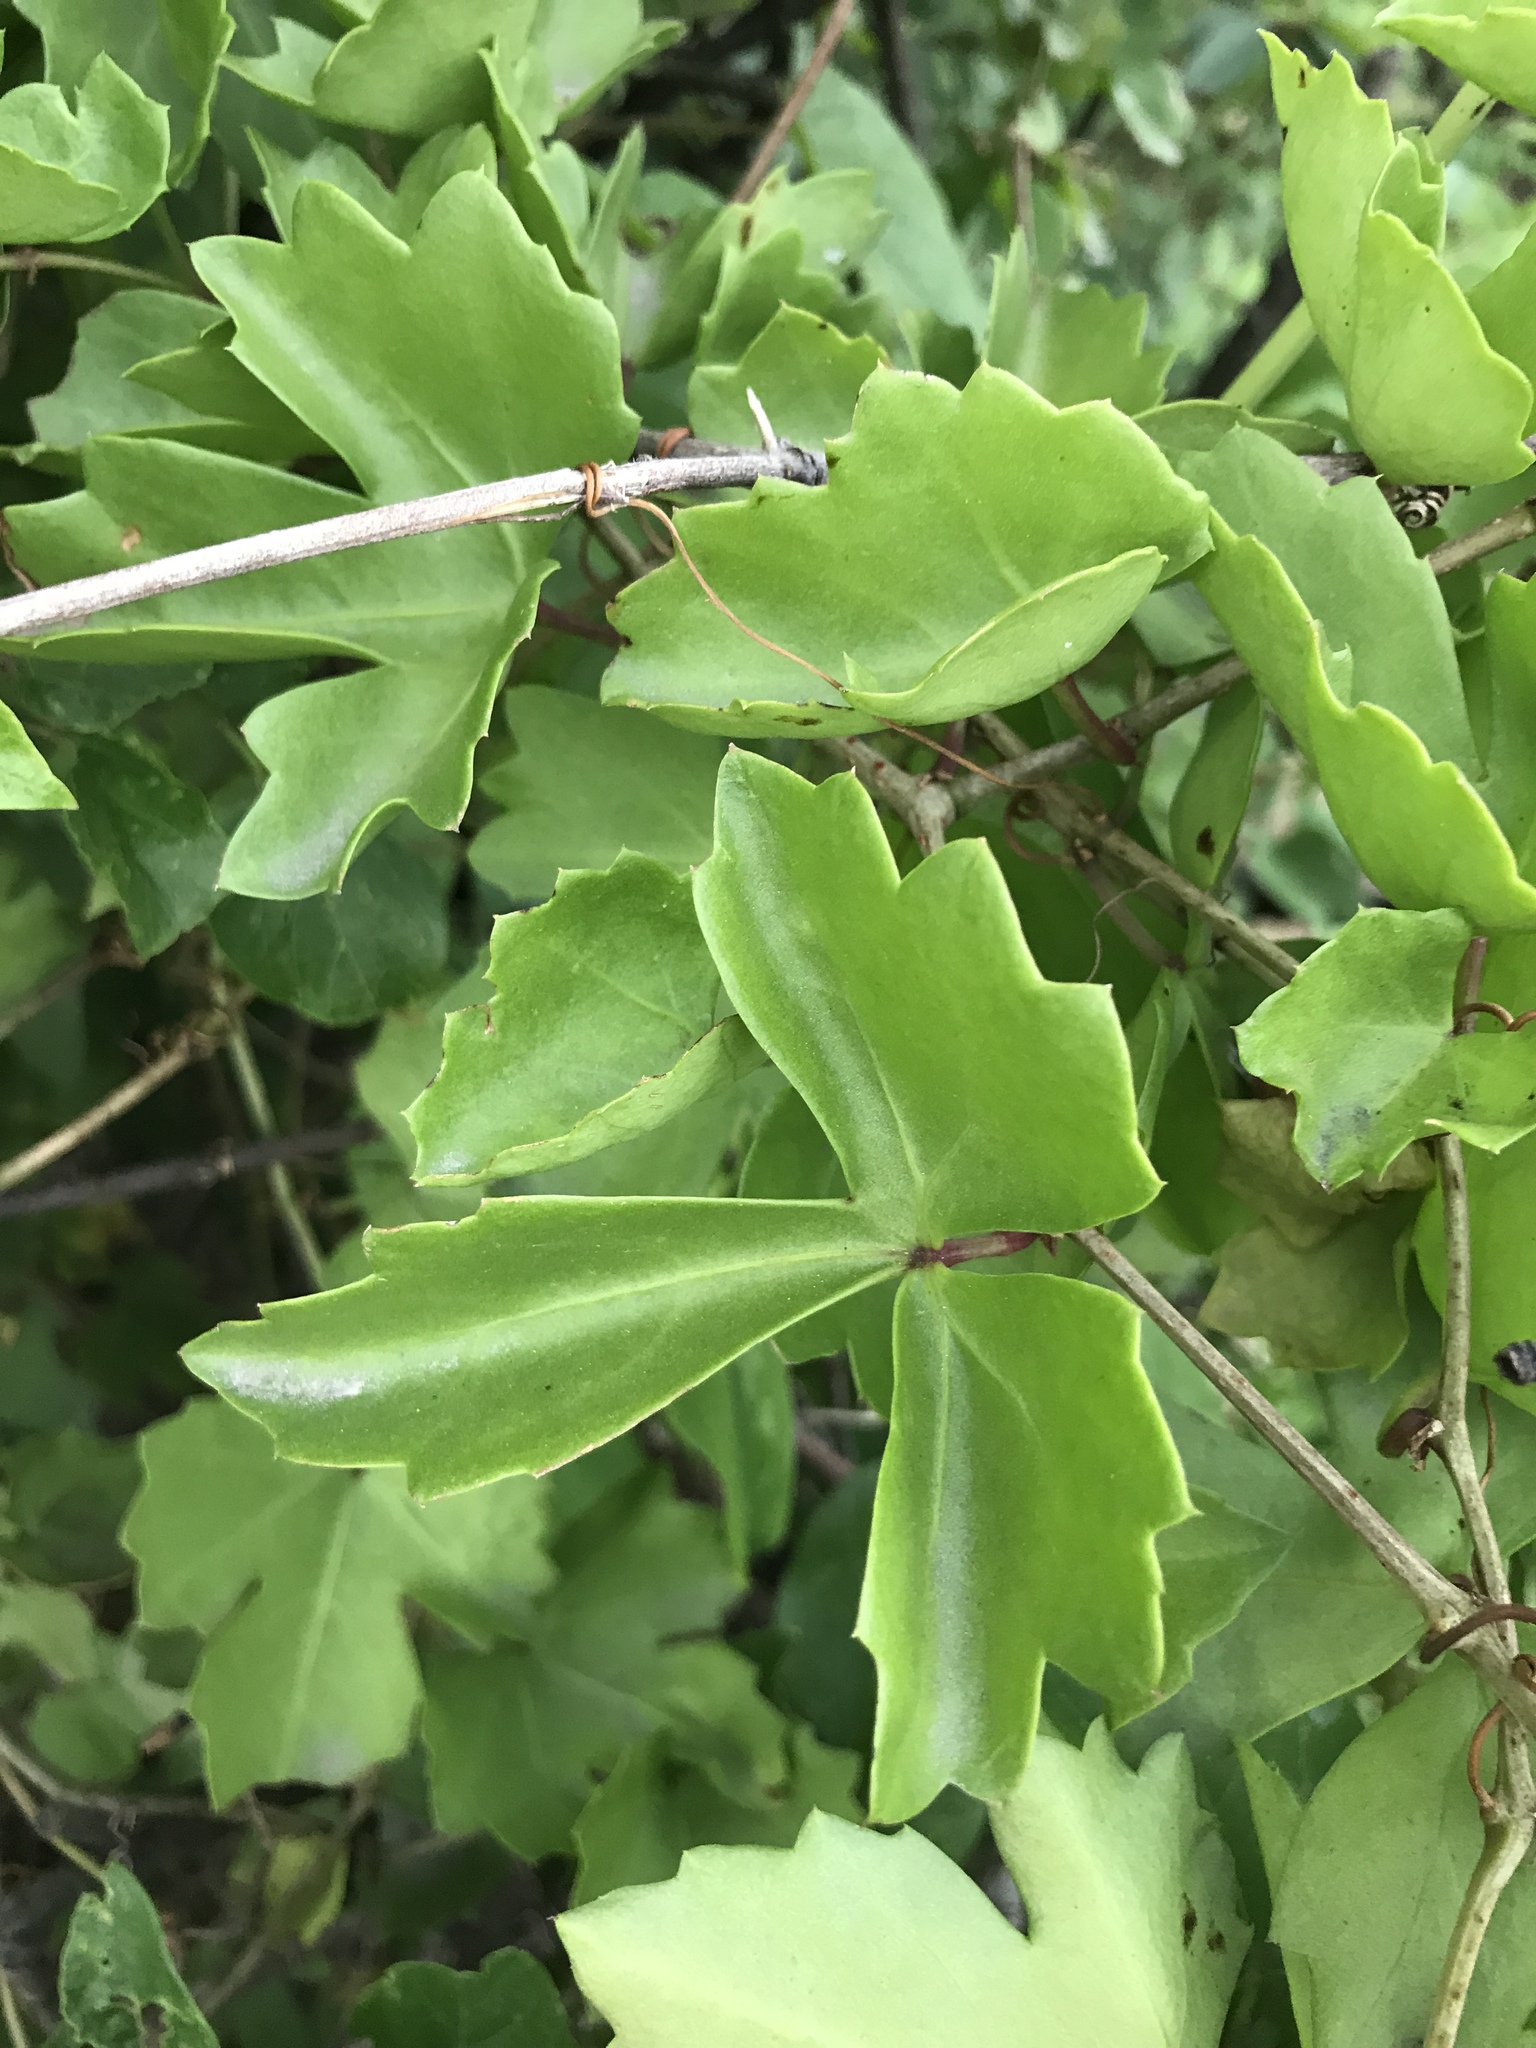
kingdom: Plantae
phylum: Tracheophyta
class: Magnoliopsida
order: Vitales
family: Vitaceae
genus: Cissus
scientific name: Cissus trifoliata
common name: Vine-sorrel
